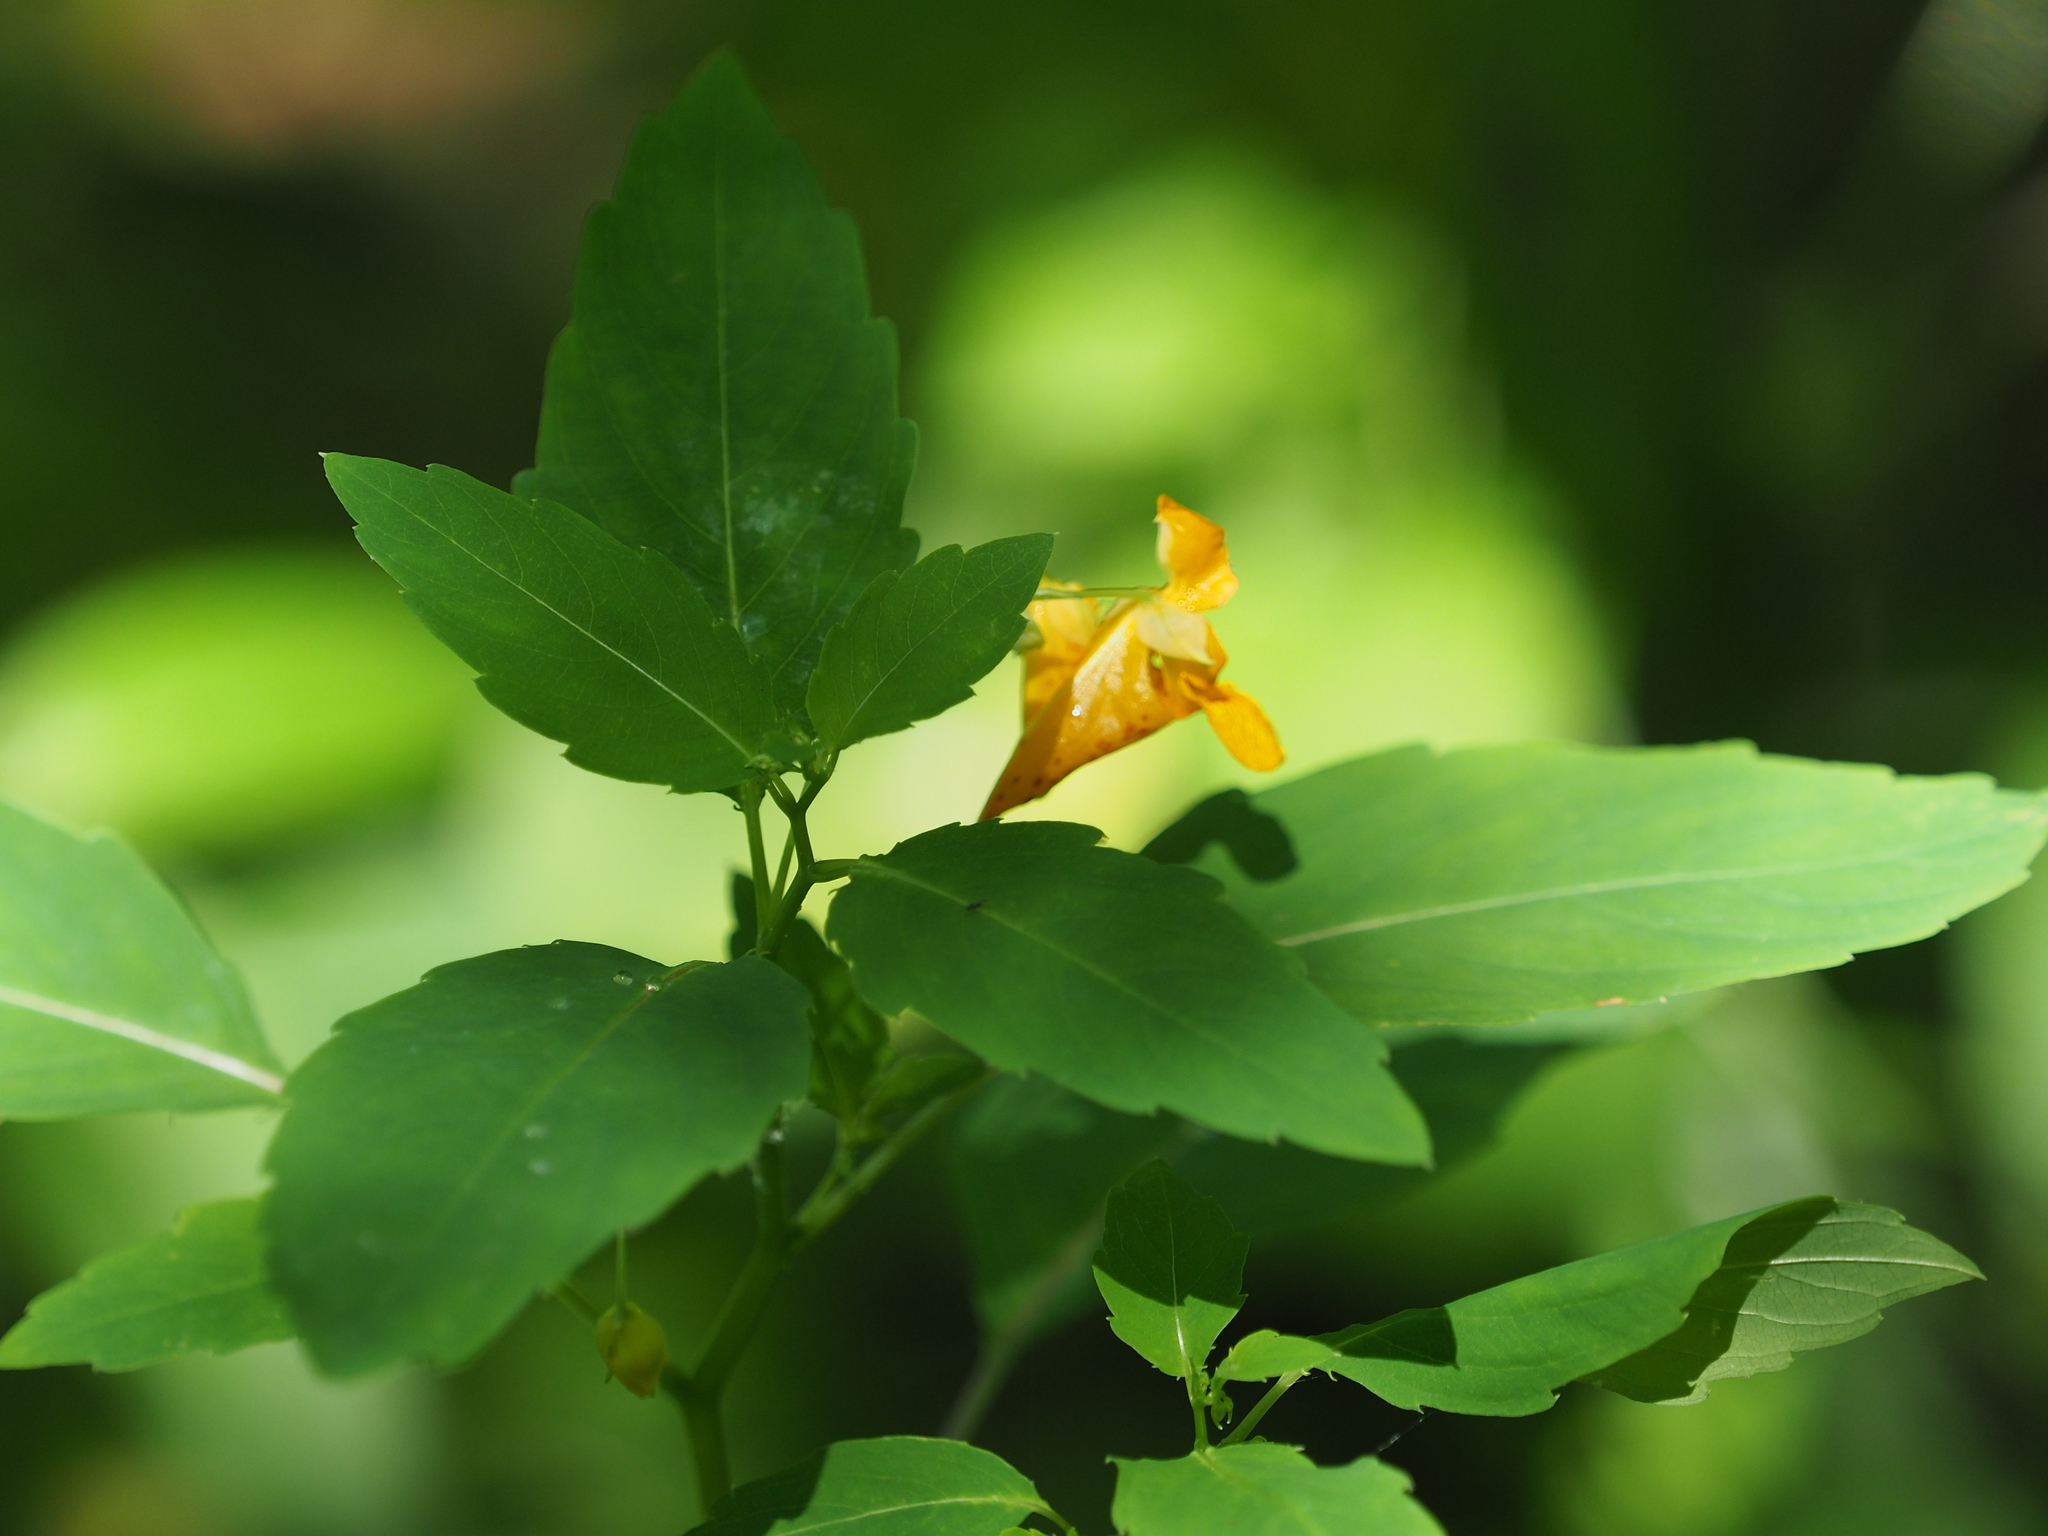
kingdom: Plantae
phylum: Tracheophyta
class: Magnoliopsida
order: Ericales
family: Balsaminaceae
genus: Impatiens
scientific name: Impatiens capensis
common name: Orange balsam
